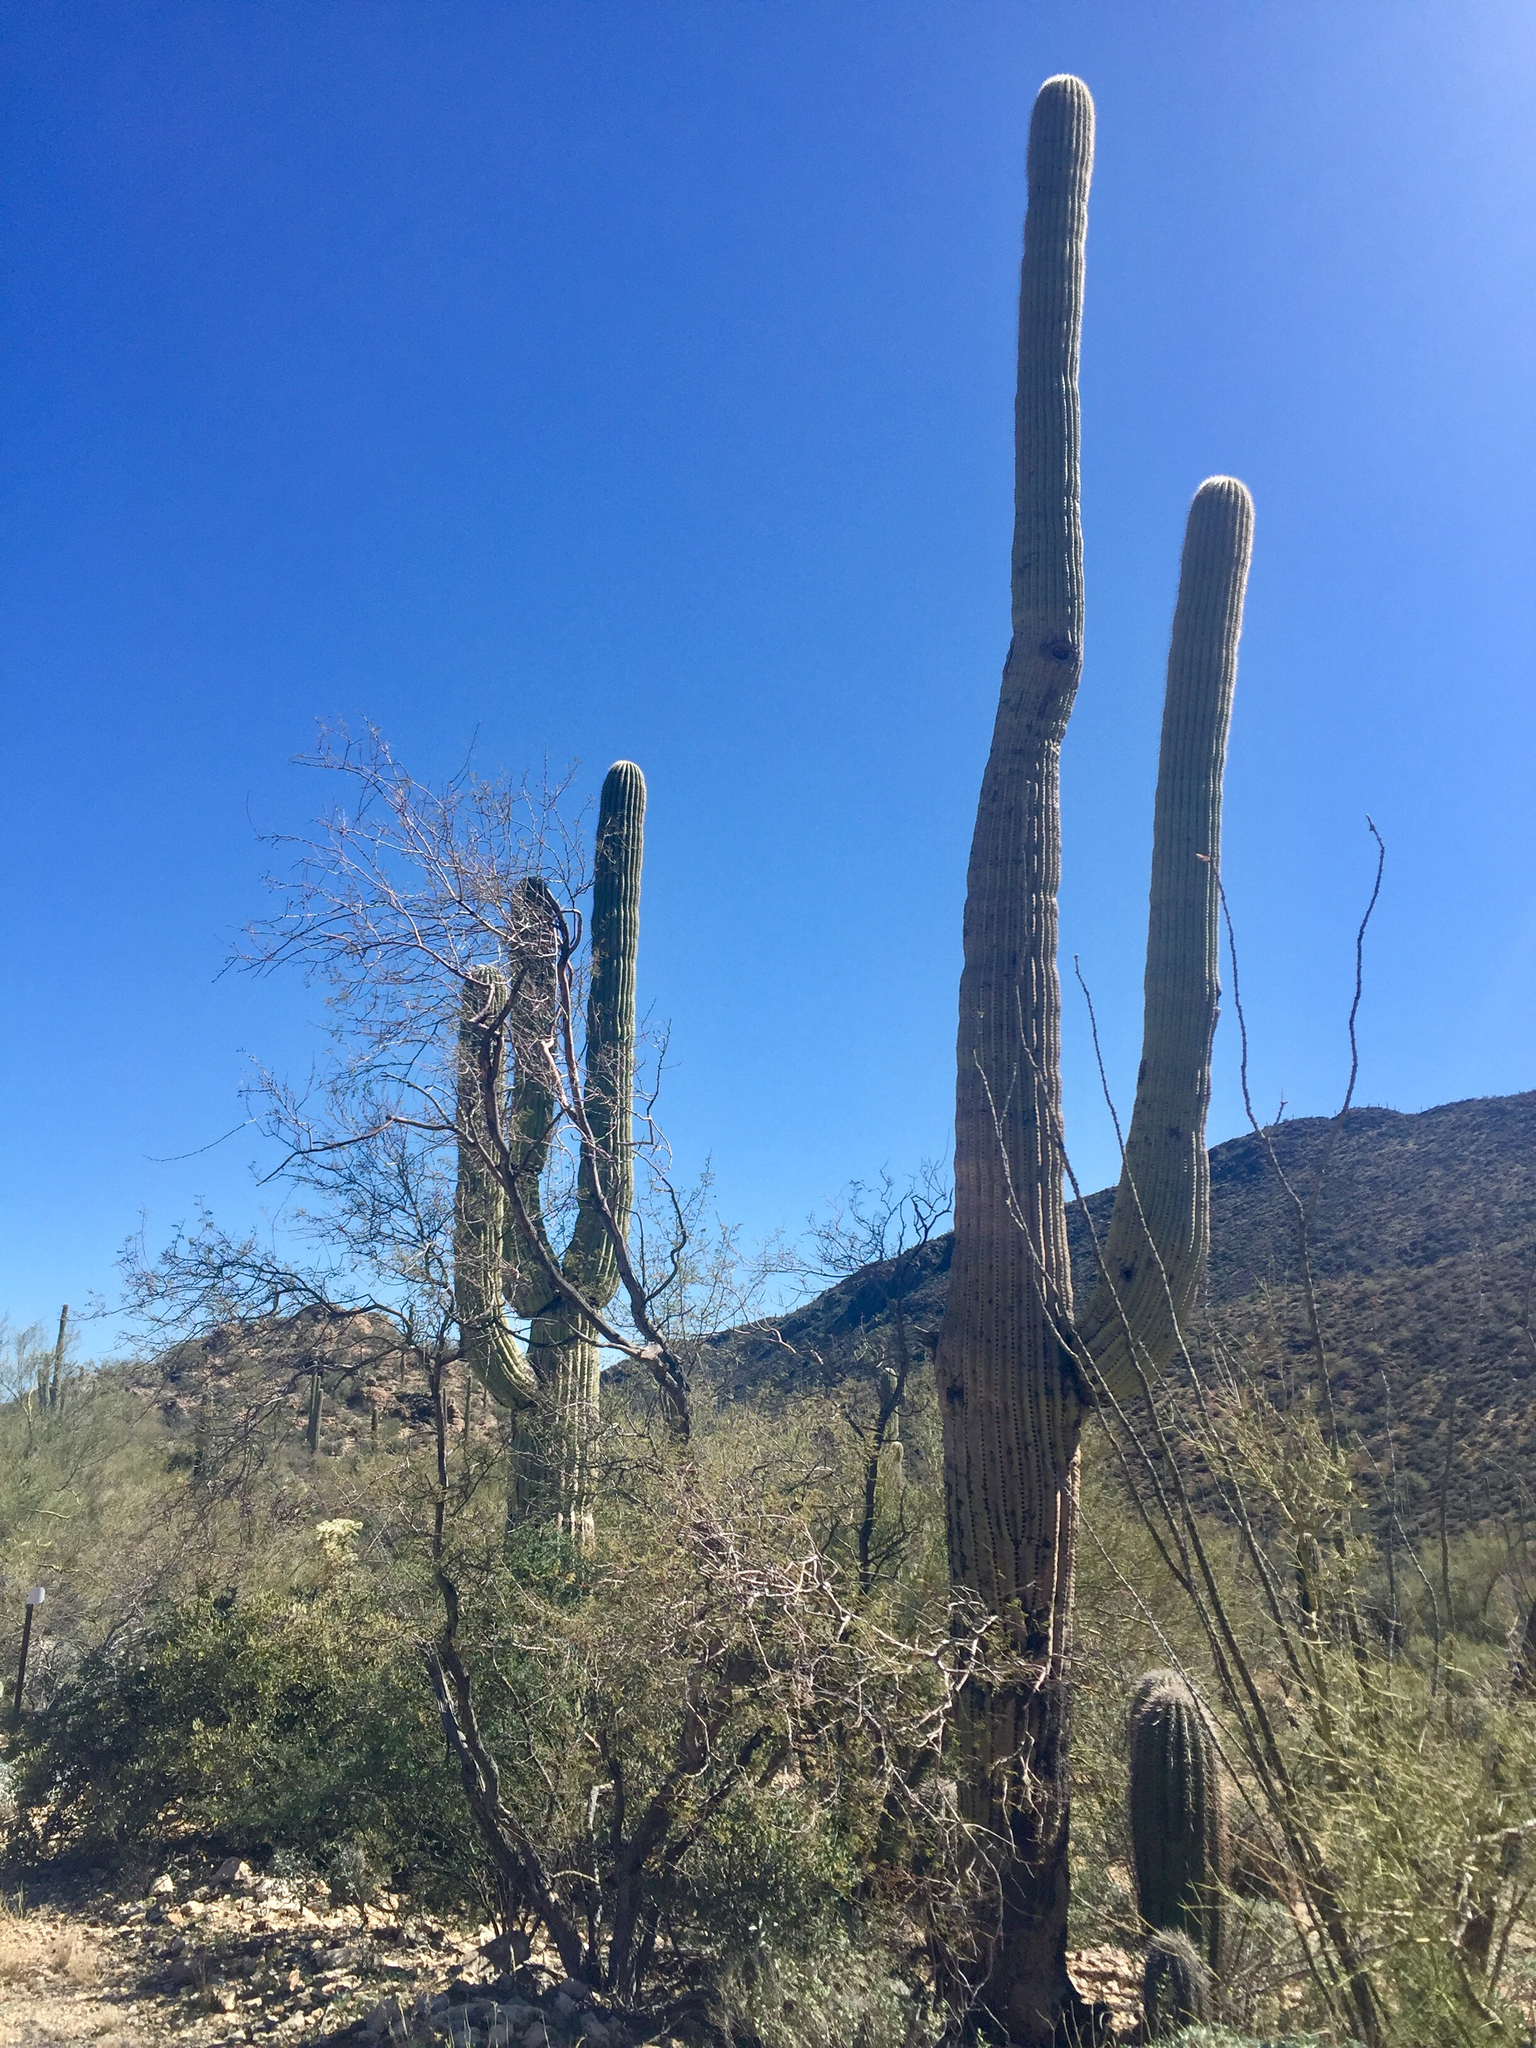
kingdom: Plantae
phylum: Tracheophyta
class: Magnoliopsida
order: Caryophyllales
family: Cactaceae
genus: Carnegiea
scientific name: Carnegiea gigantea
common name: Saguaro
